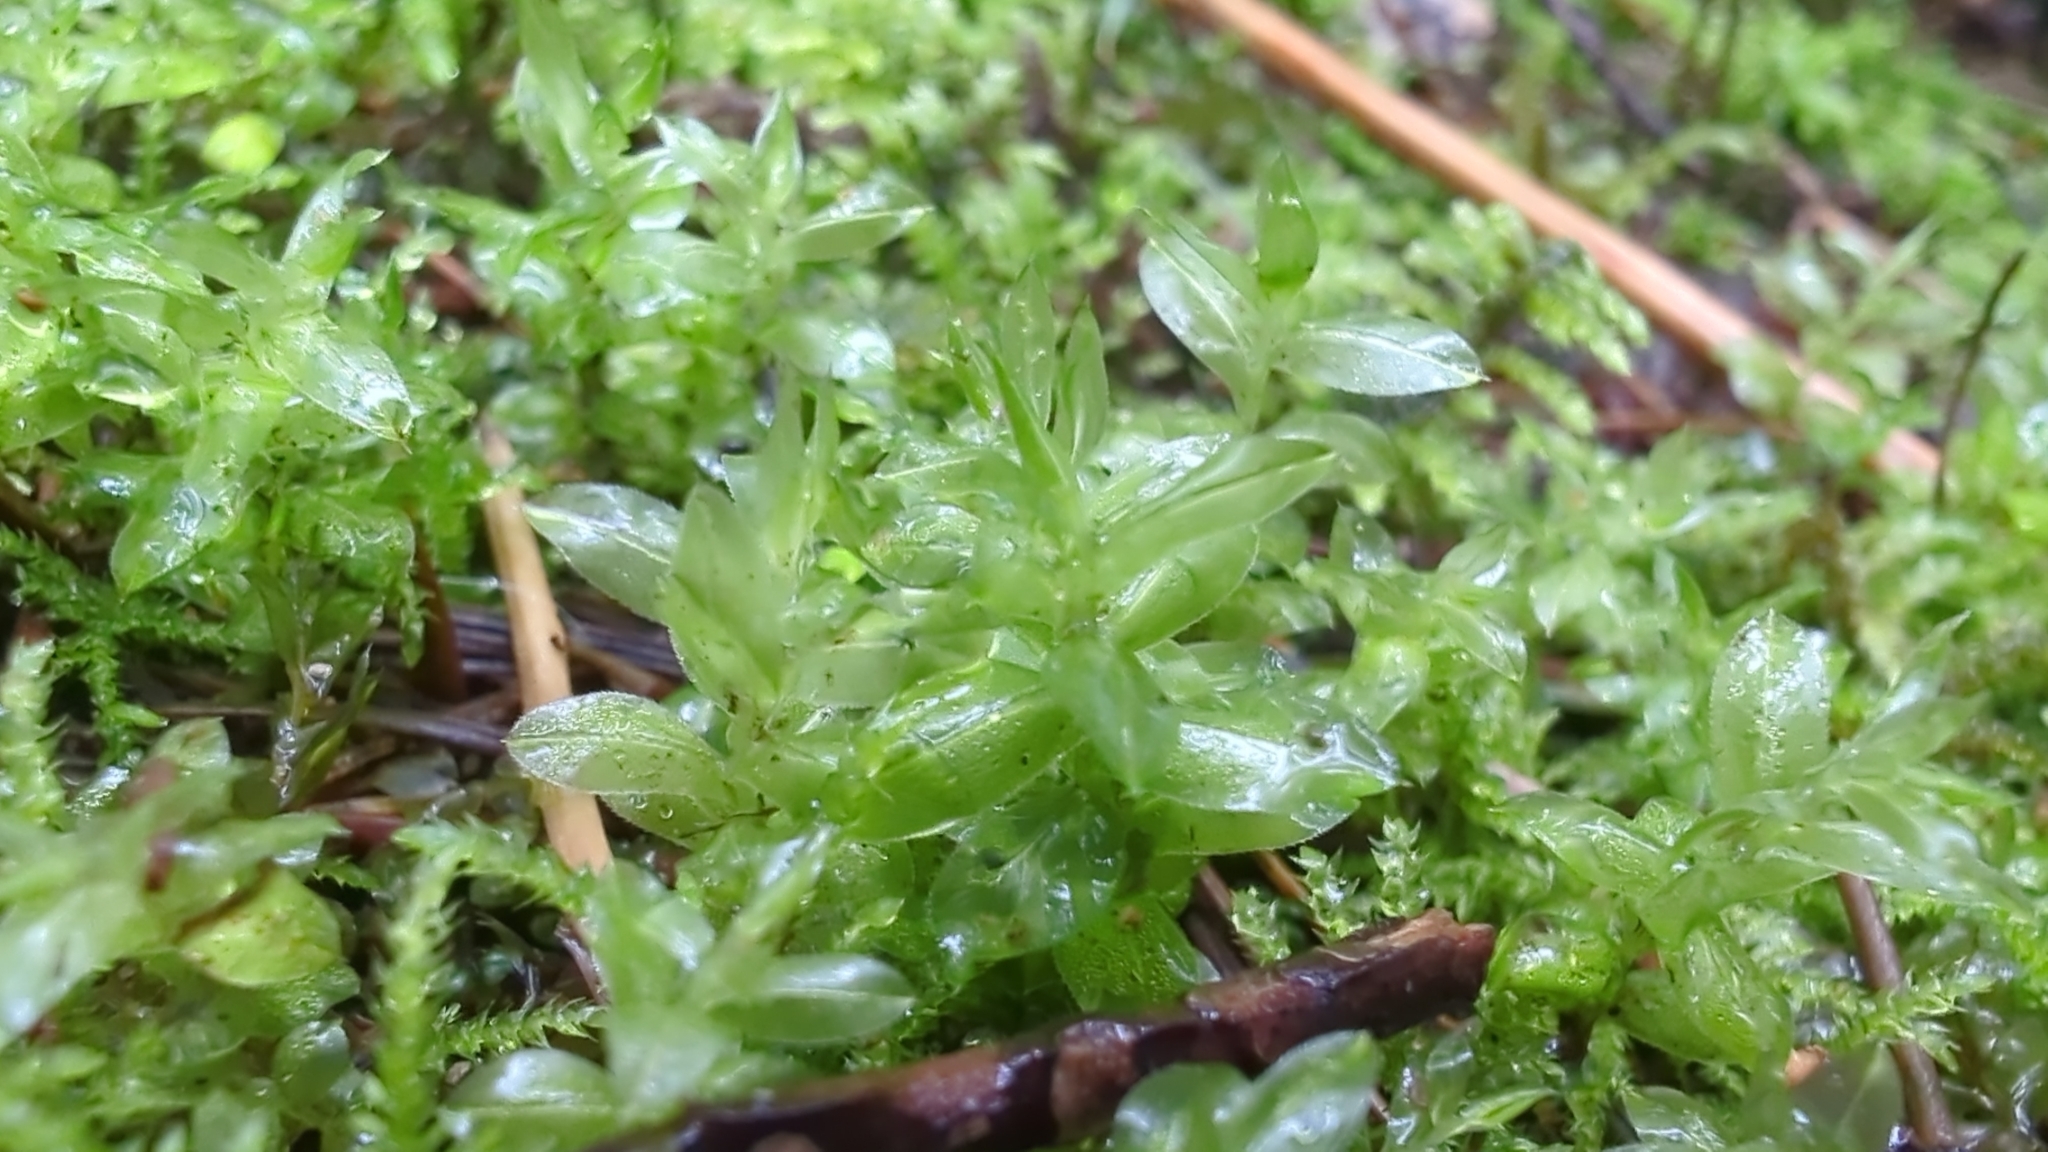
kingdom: Plantae
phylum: Bryophyta
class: Bryopsida
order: Bryales
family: Mniaceae
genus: Plagiomnium
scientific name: Plagiomnium insigne
